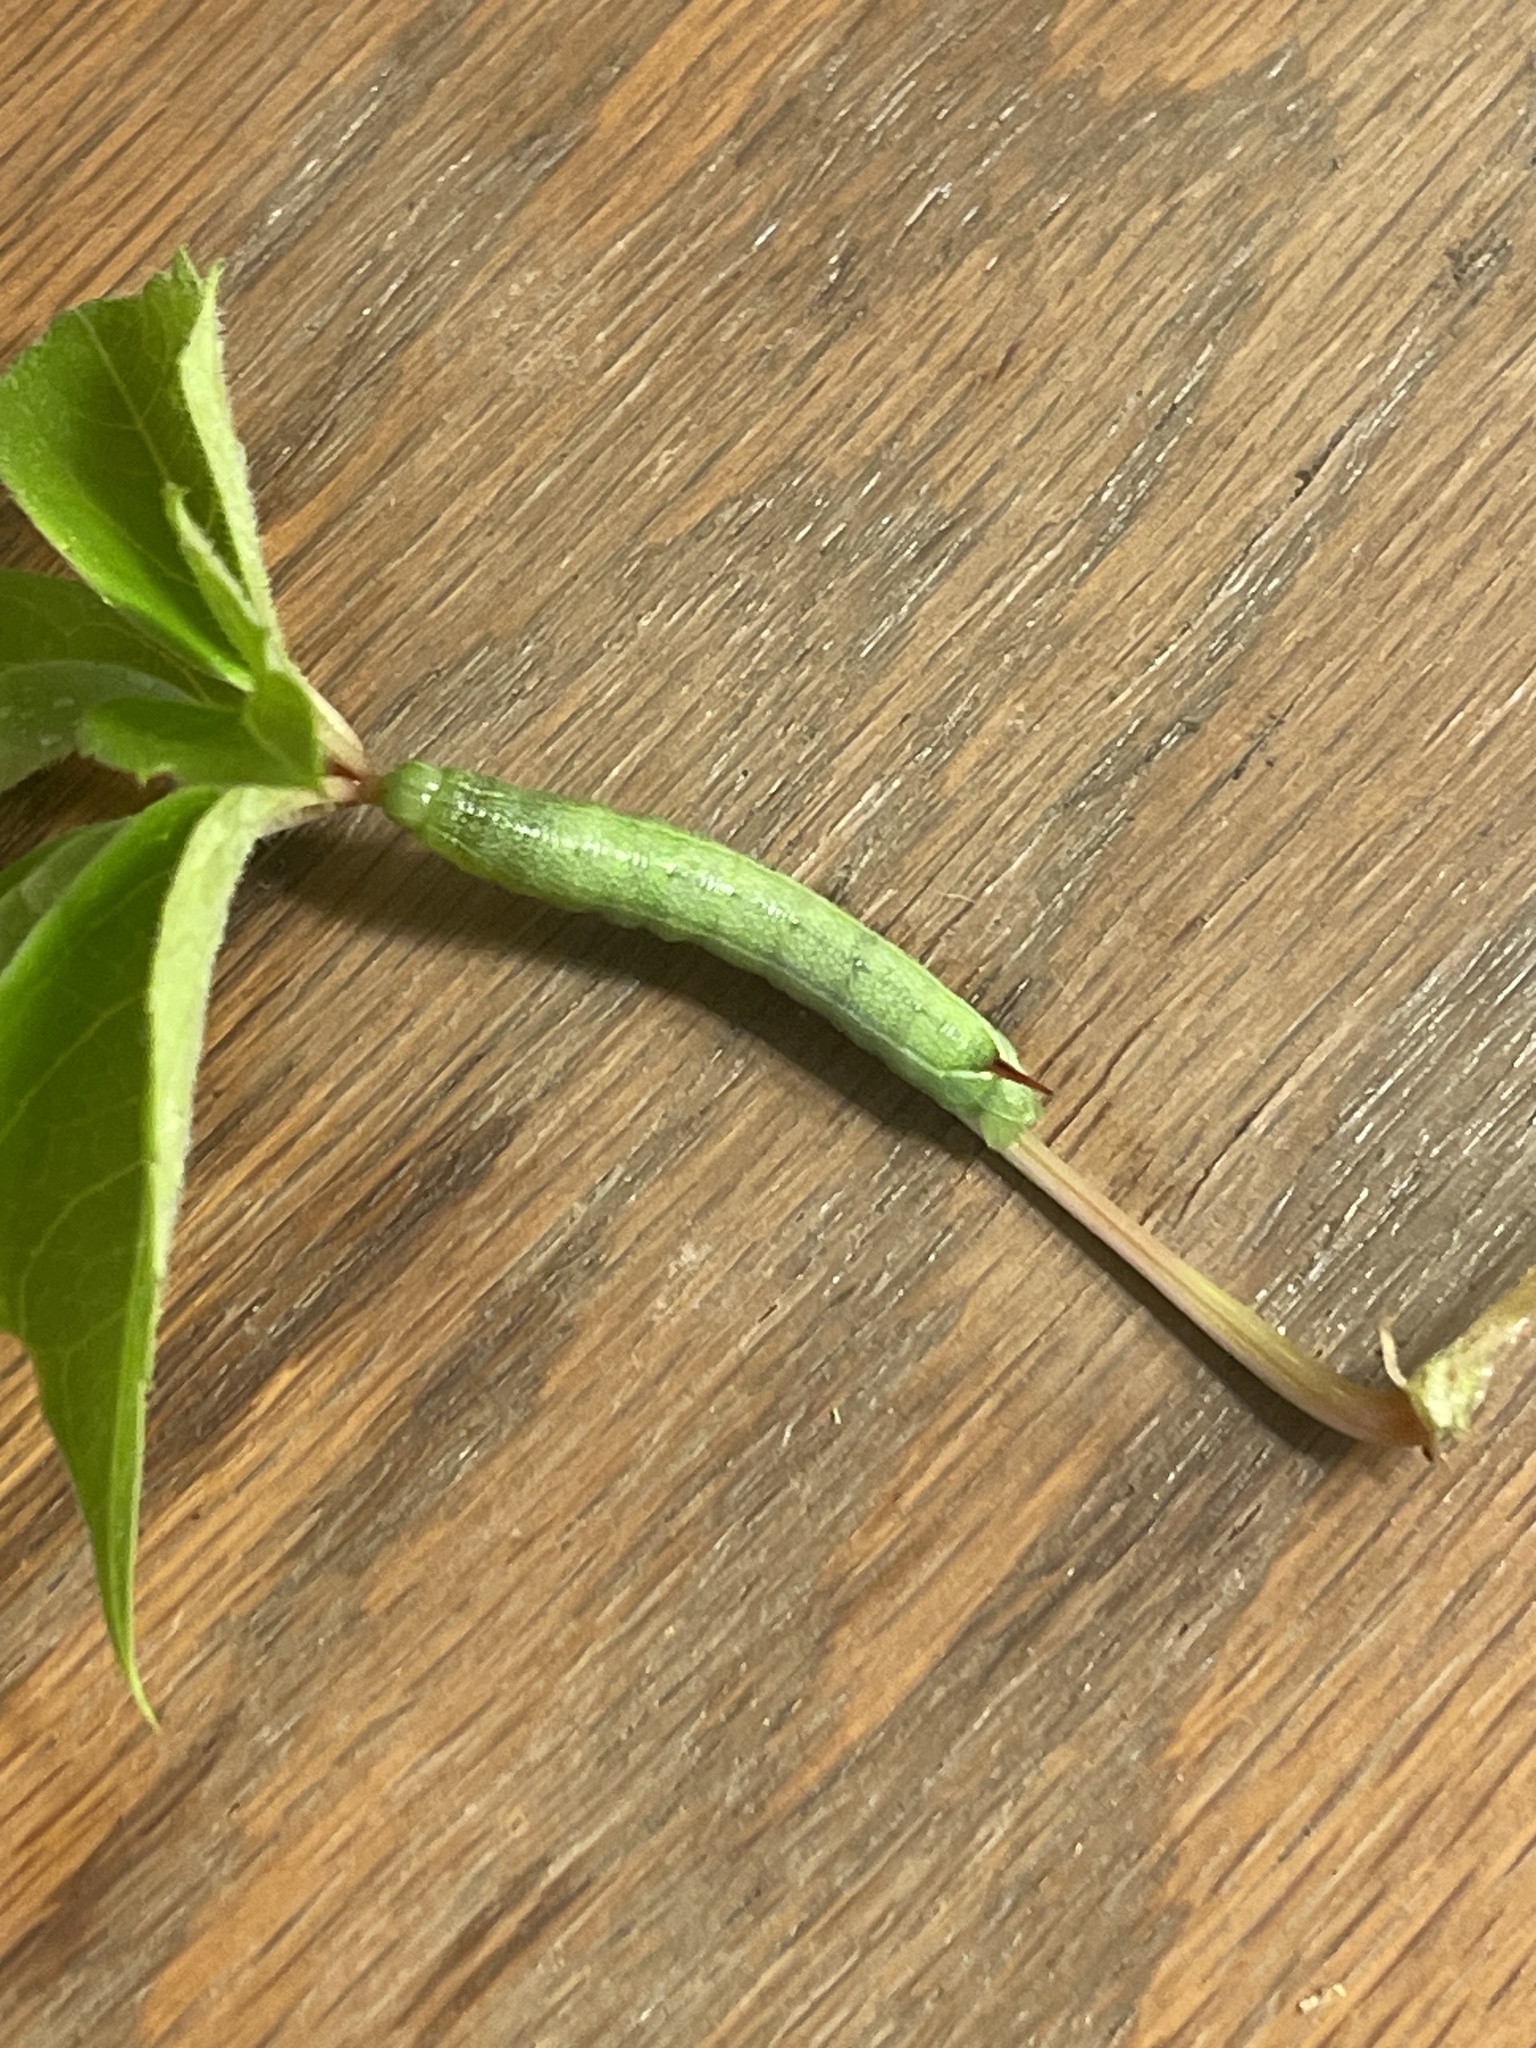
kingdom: Animalia
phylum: Arthropoda
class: Insecta
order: Lepidoptera
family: Sphingidae
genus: Amphion
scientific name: Amphion floridensis
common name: Nessus sphinx
